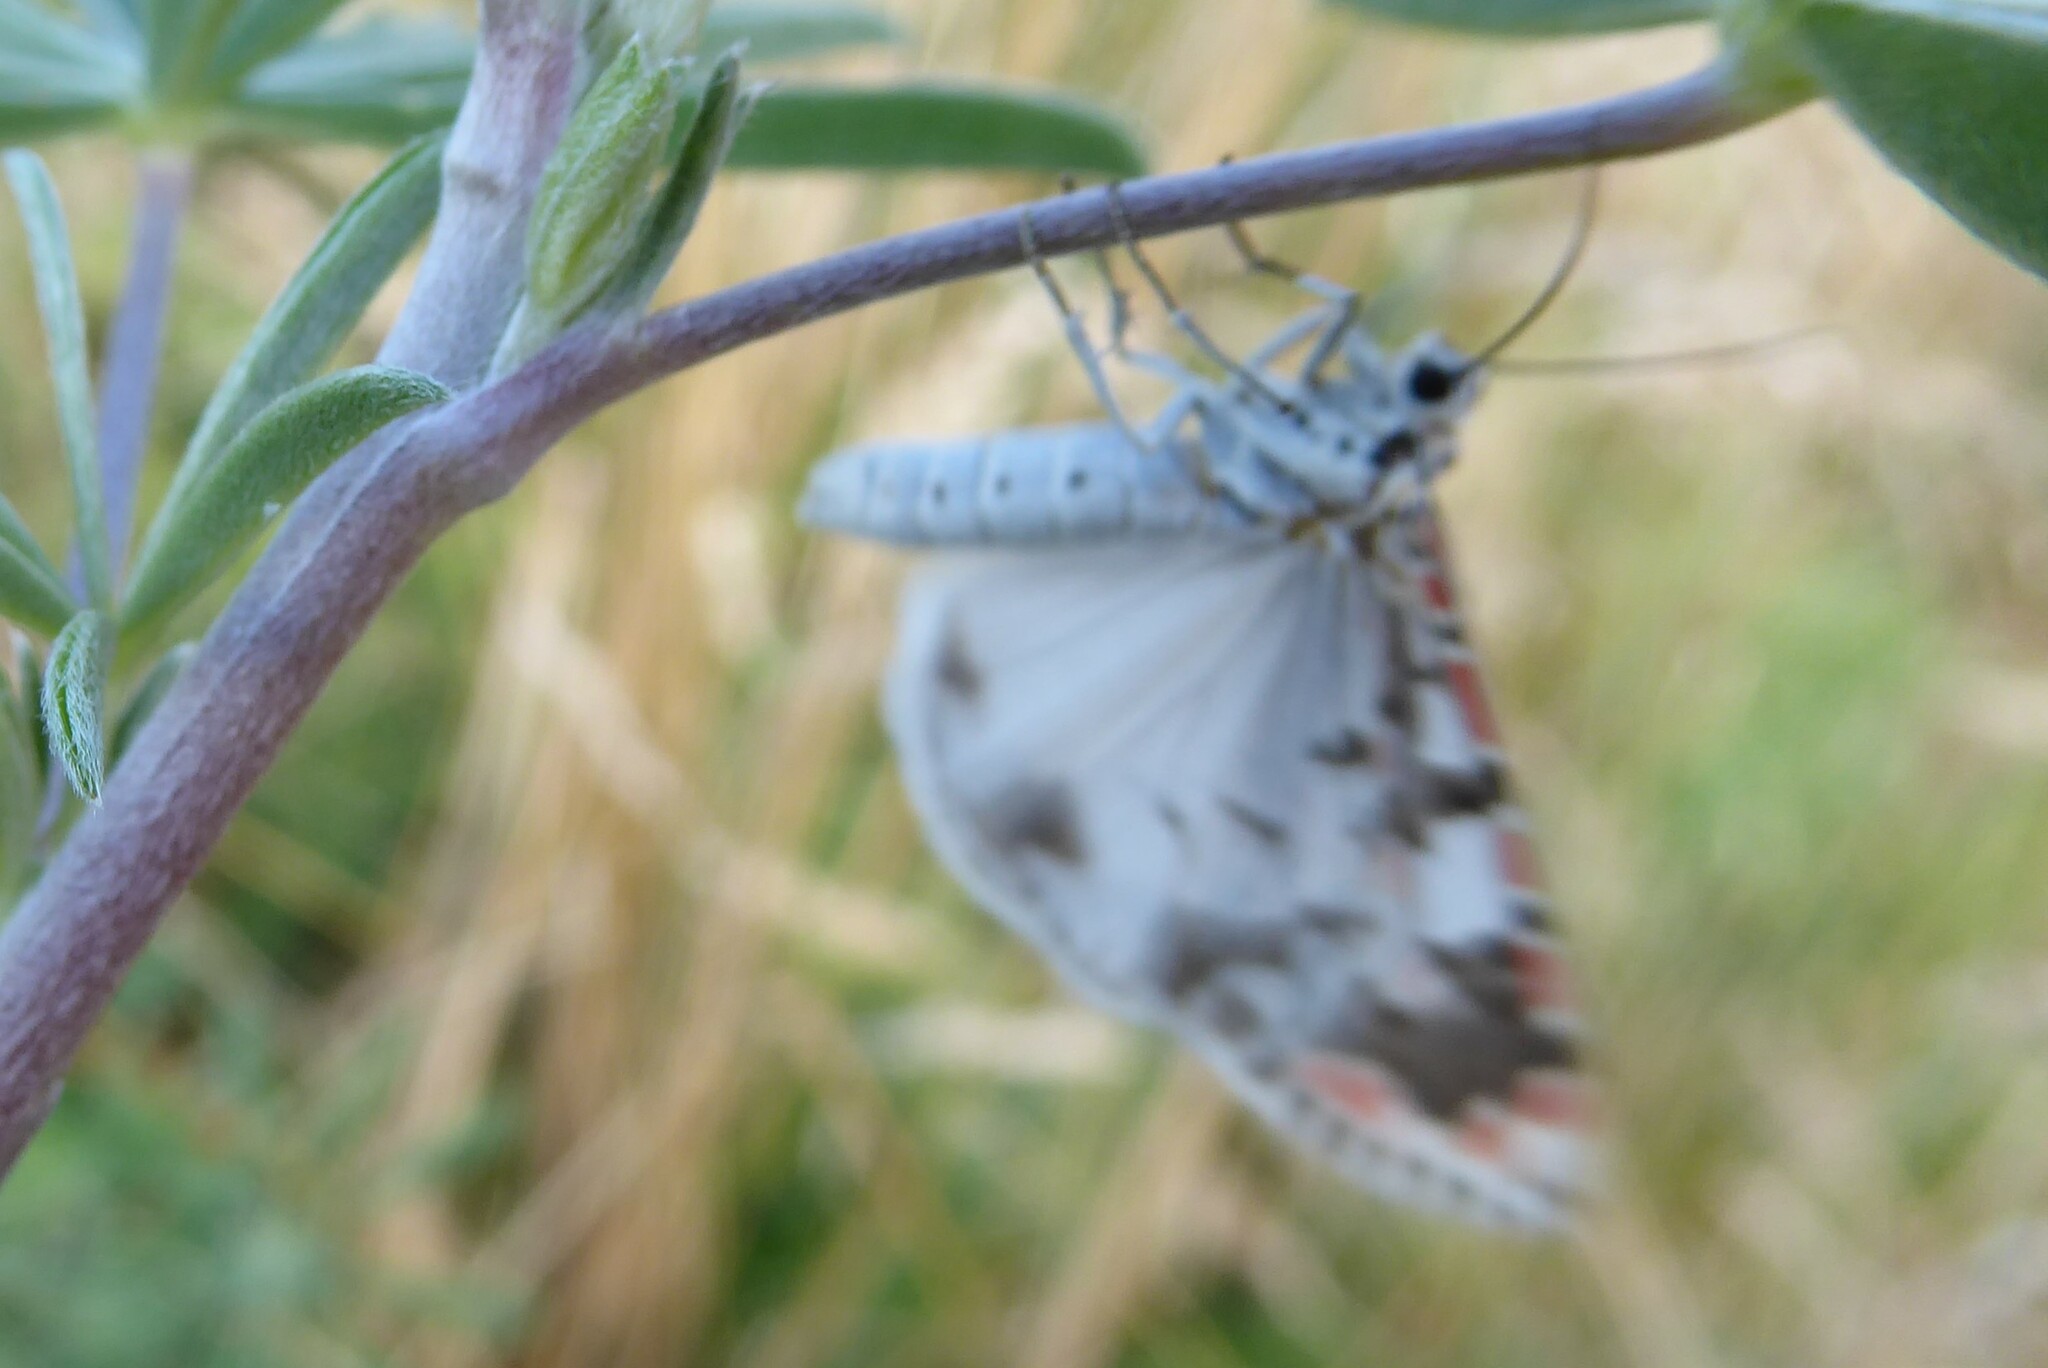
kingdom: Animalia
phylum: Arthropoda
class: Insecta
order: Lepidoptera
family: Erebidae
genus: Utetheisa
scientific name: Utetheisa pulchelloides
